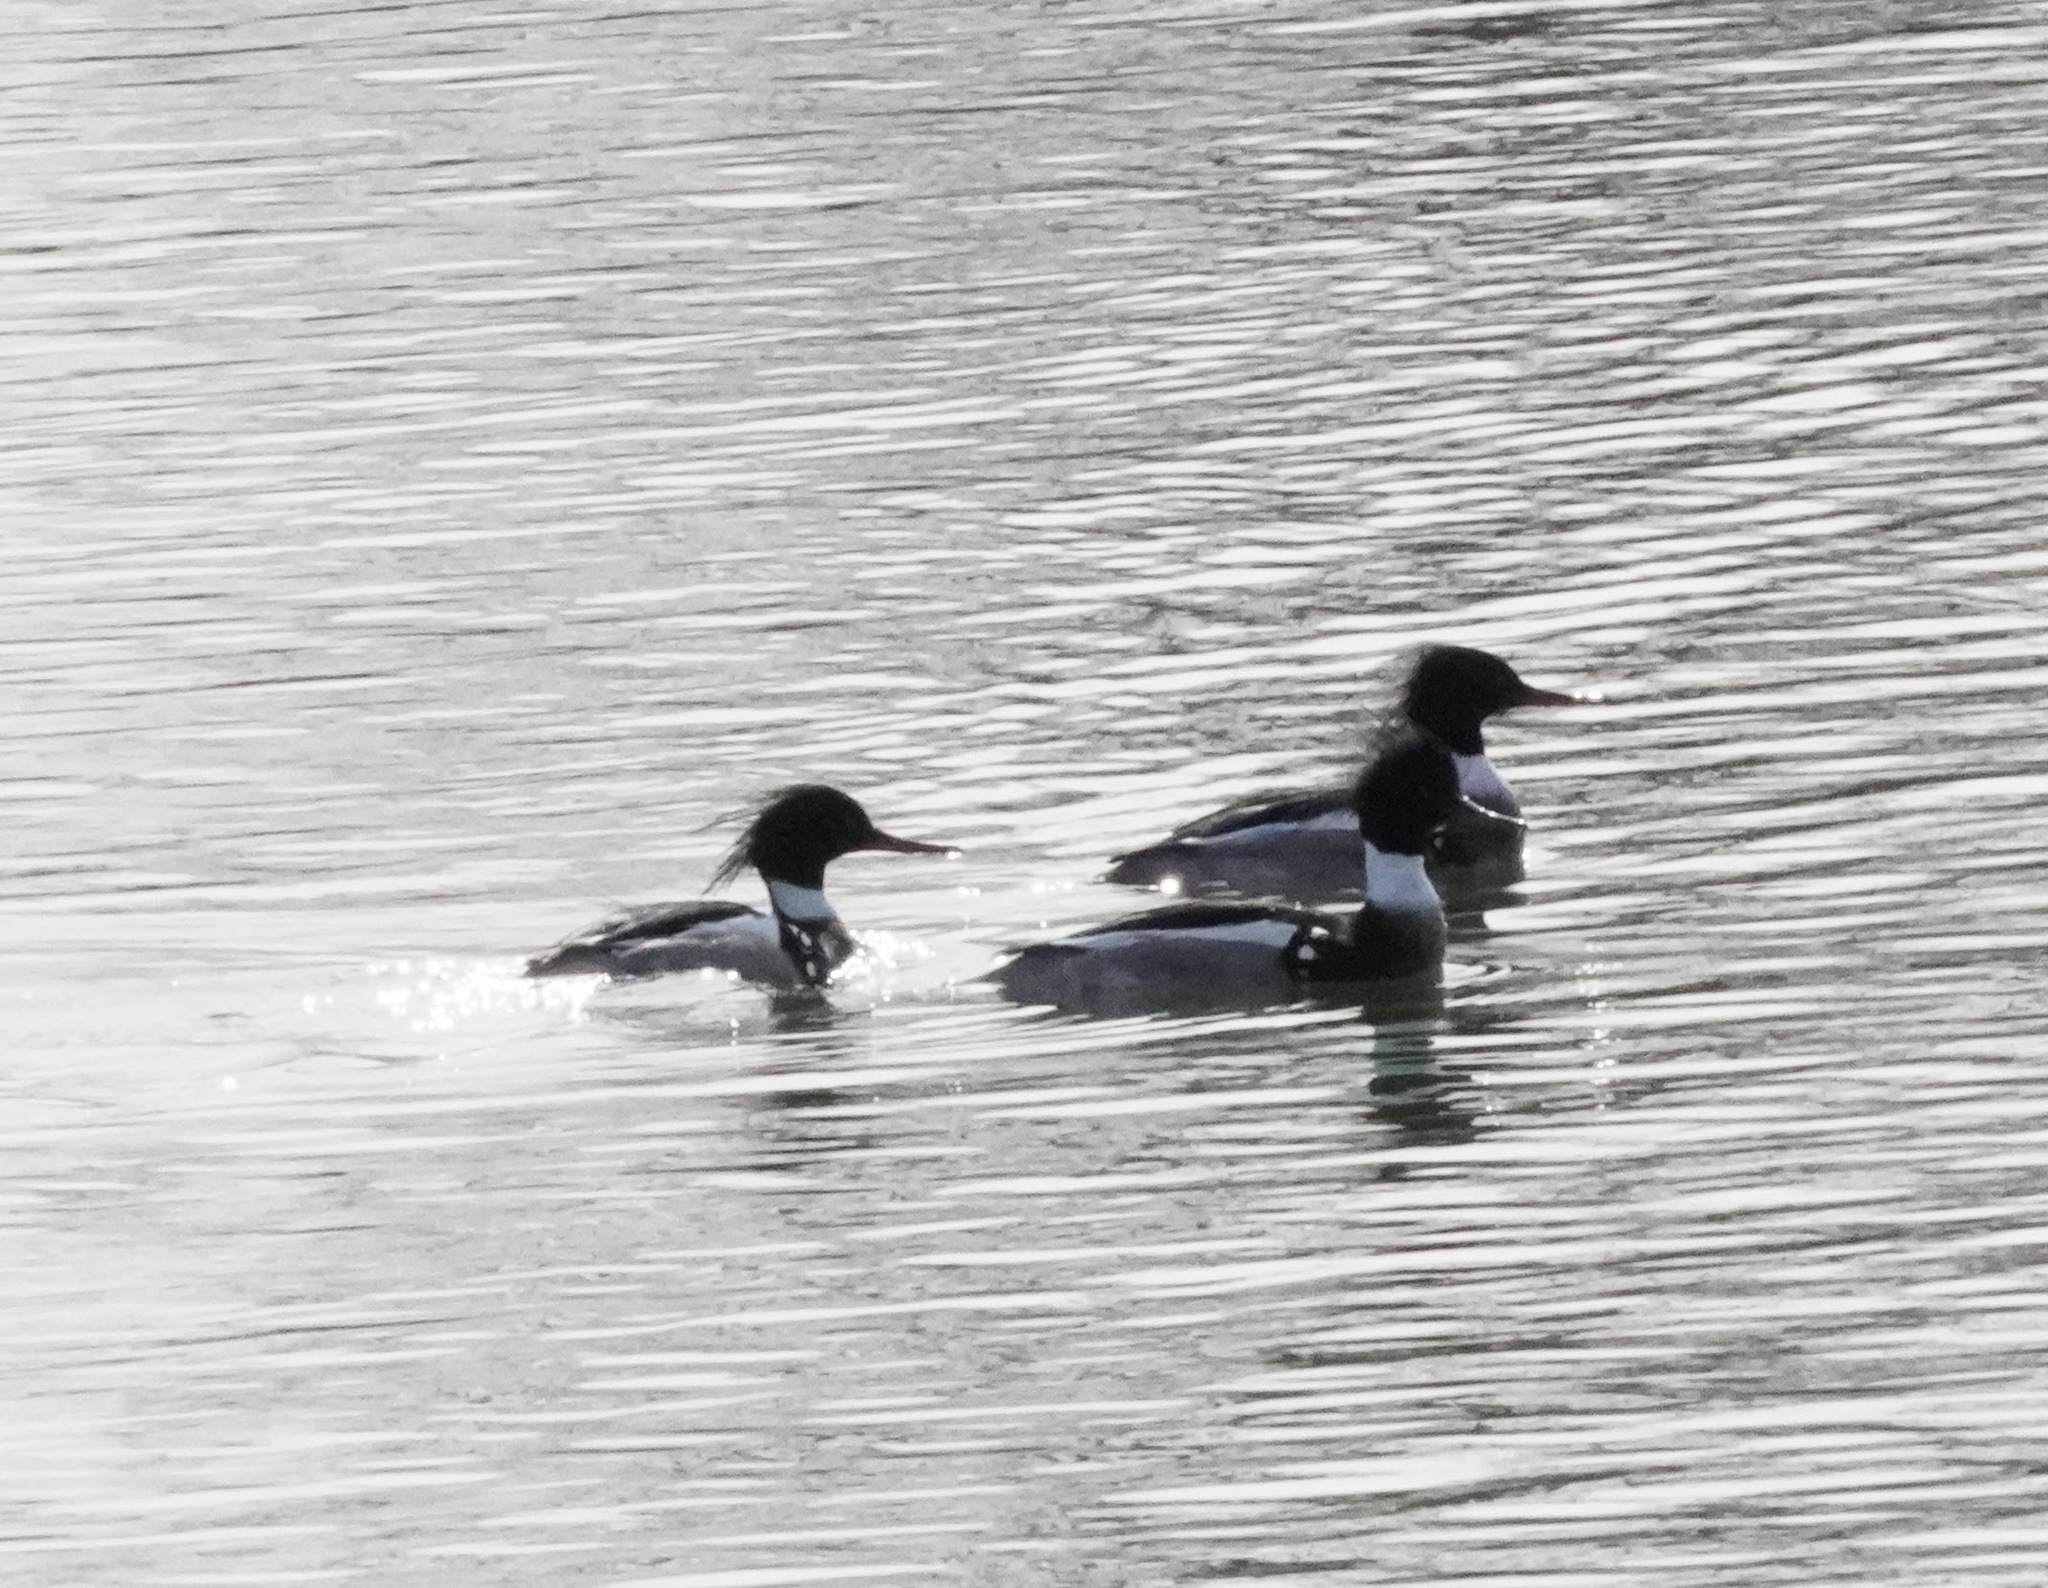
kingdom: Animalia
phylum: Chordata
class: Aves
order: Anseriformes
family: Anatidae
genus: Mergus
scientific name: Mergus serrator
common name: Red-breasted merganser
